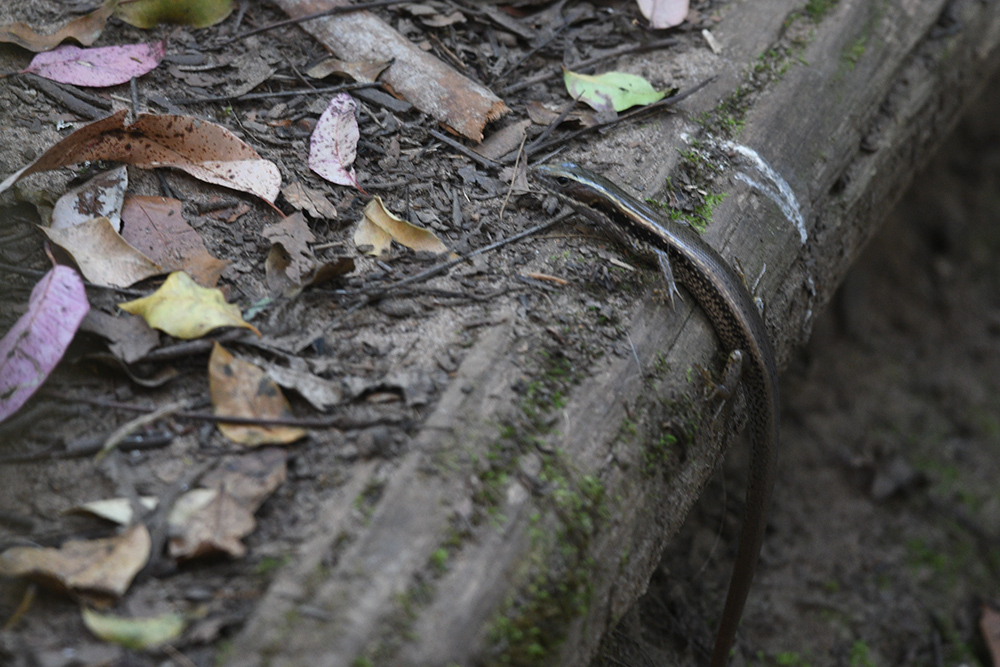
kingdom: Animalia
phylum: Chordata
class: Squamata
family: Scincidae
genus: Eulamprus
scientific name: Eulamprus quoyii
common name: Eastern water skink
